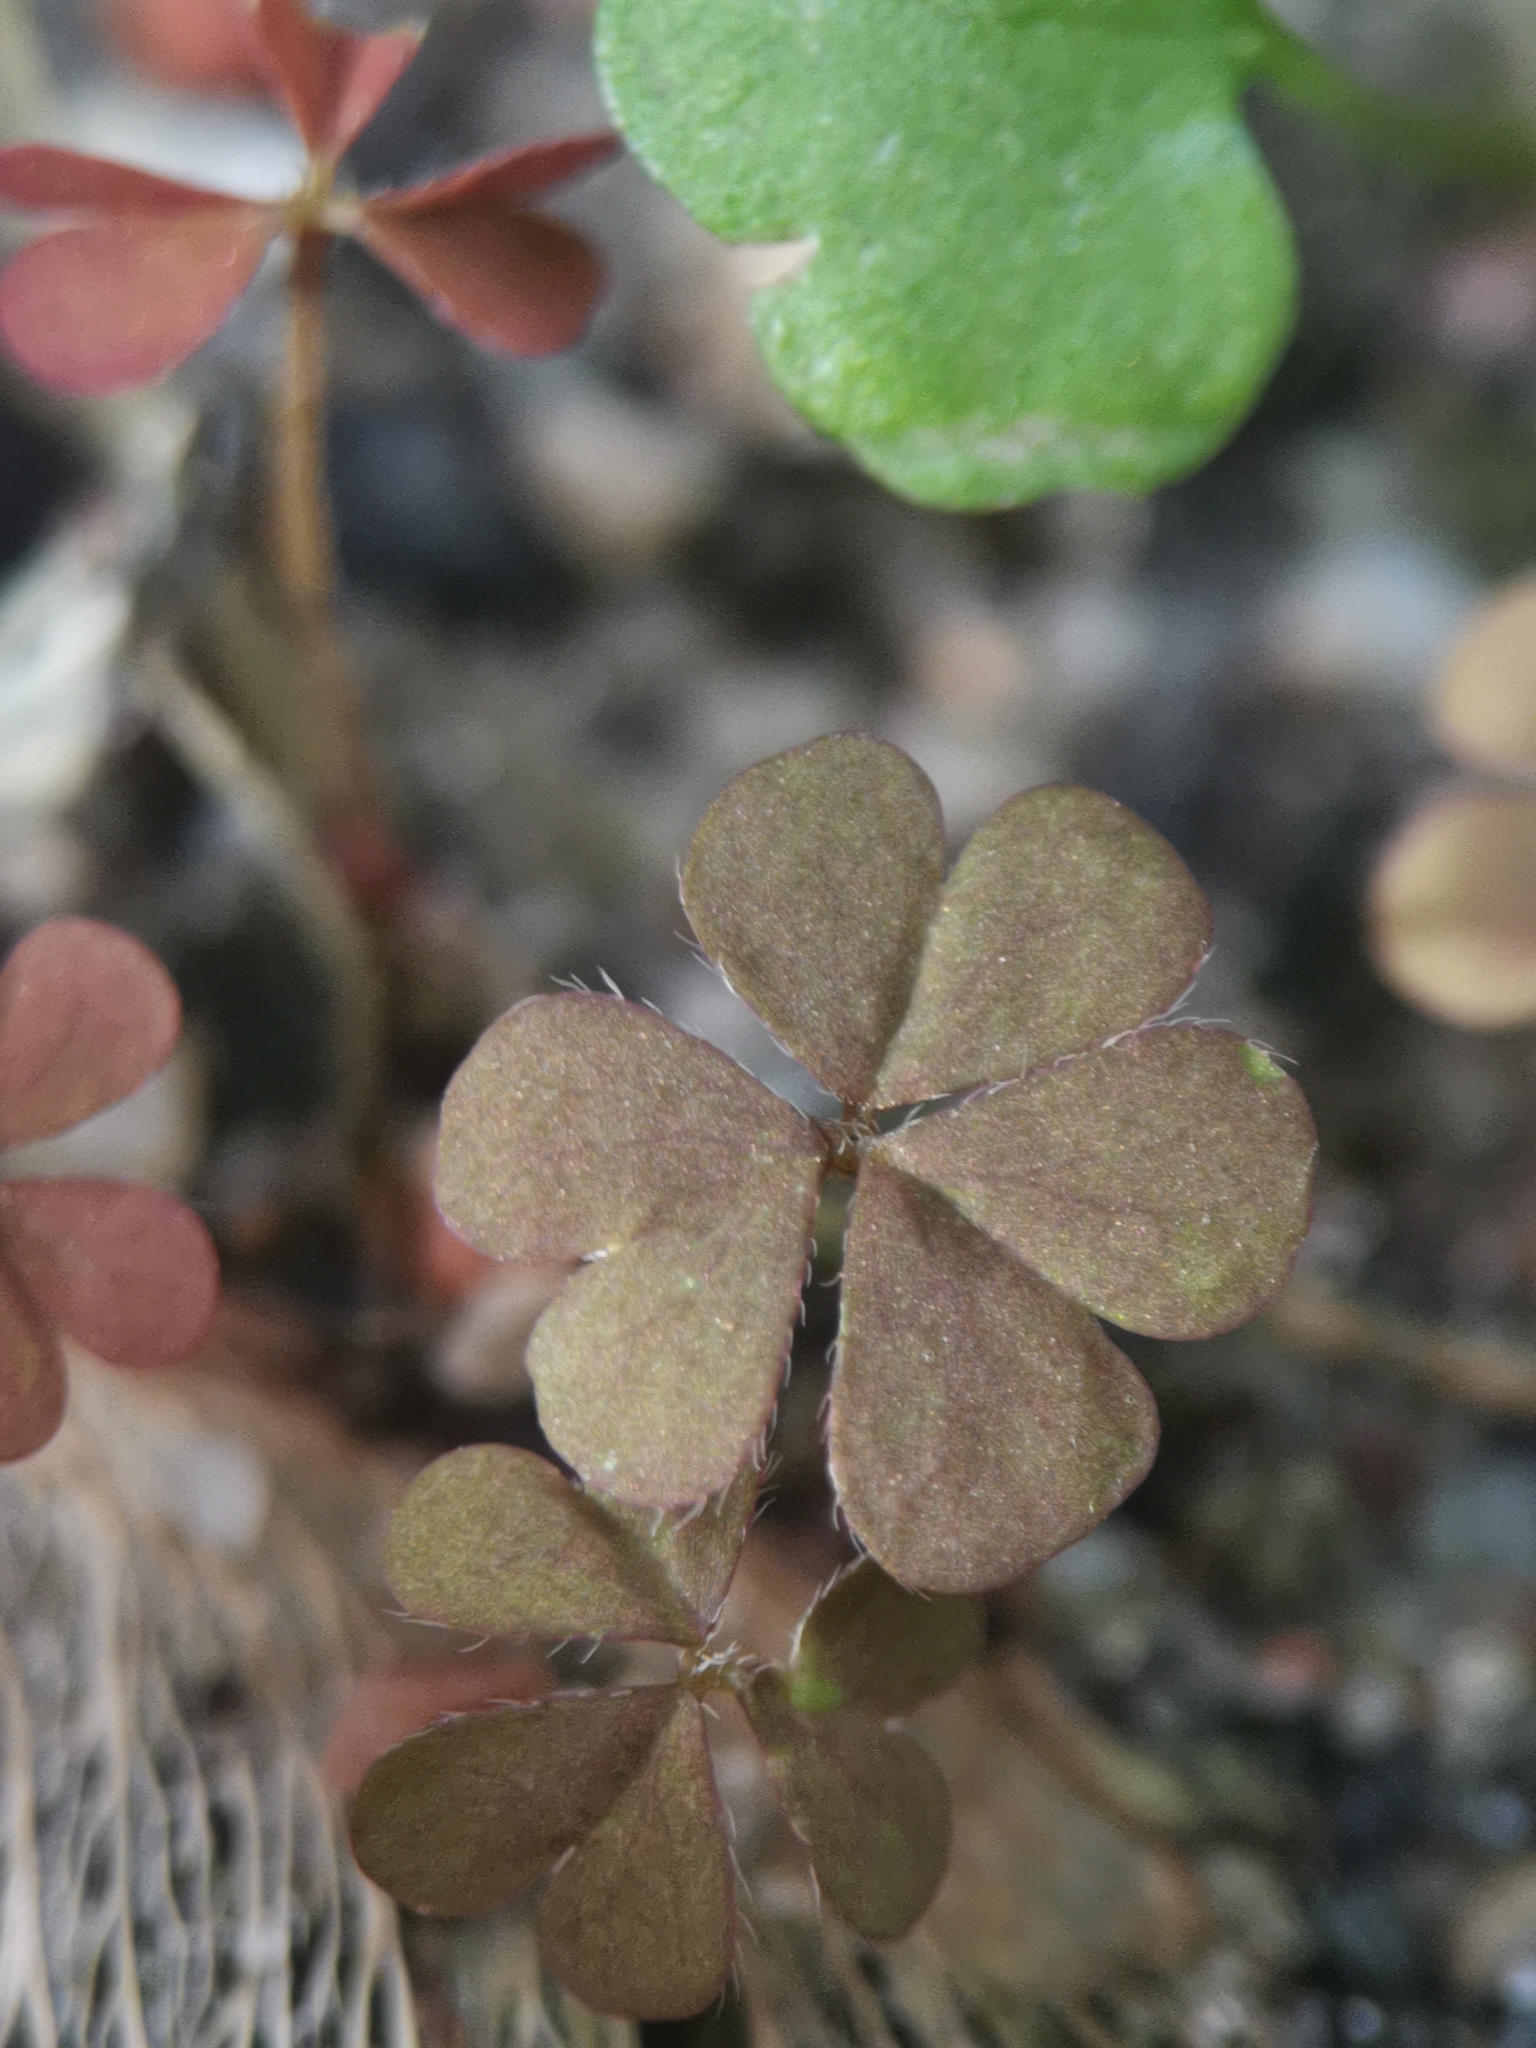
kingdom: Plantae
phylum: Tracheophyta
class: Magnoliopsida
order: Oxalidales
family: Oxalidaceae
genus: Oxalis
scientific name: Oxalis corniculata
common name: Procumbent yellow-sorrel
